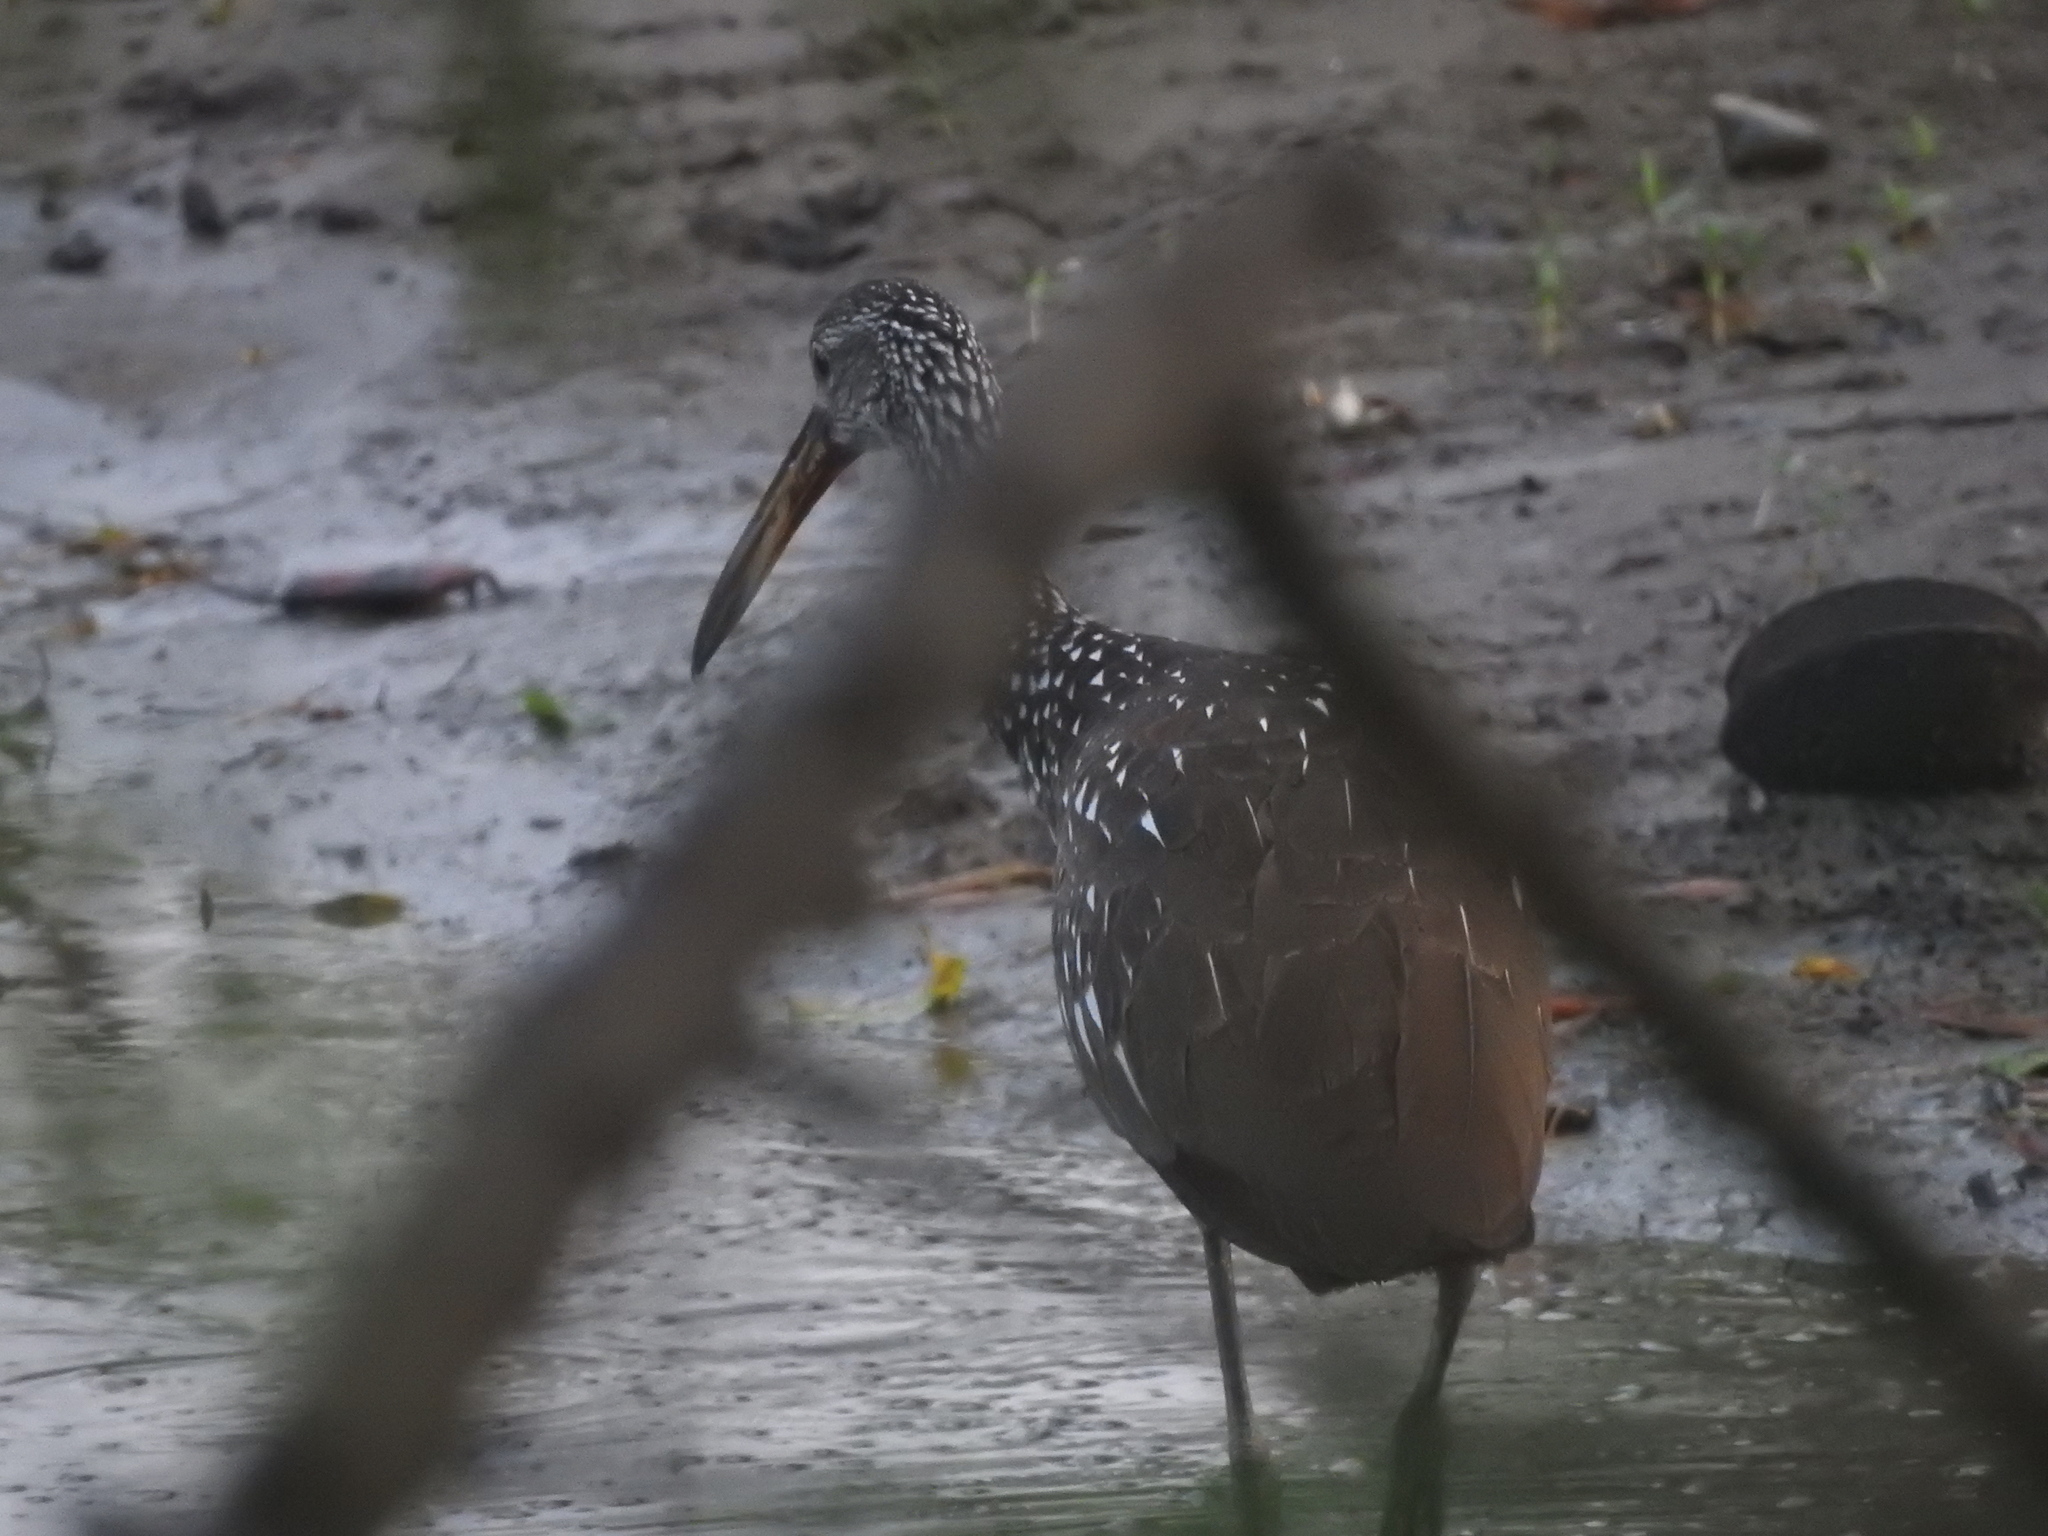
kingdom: Animalia
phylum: Chordata
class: Aves
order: Gruiformes
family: Aramidae
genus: Aramus
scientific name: Aramus guarauna
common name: Limpkin
